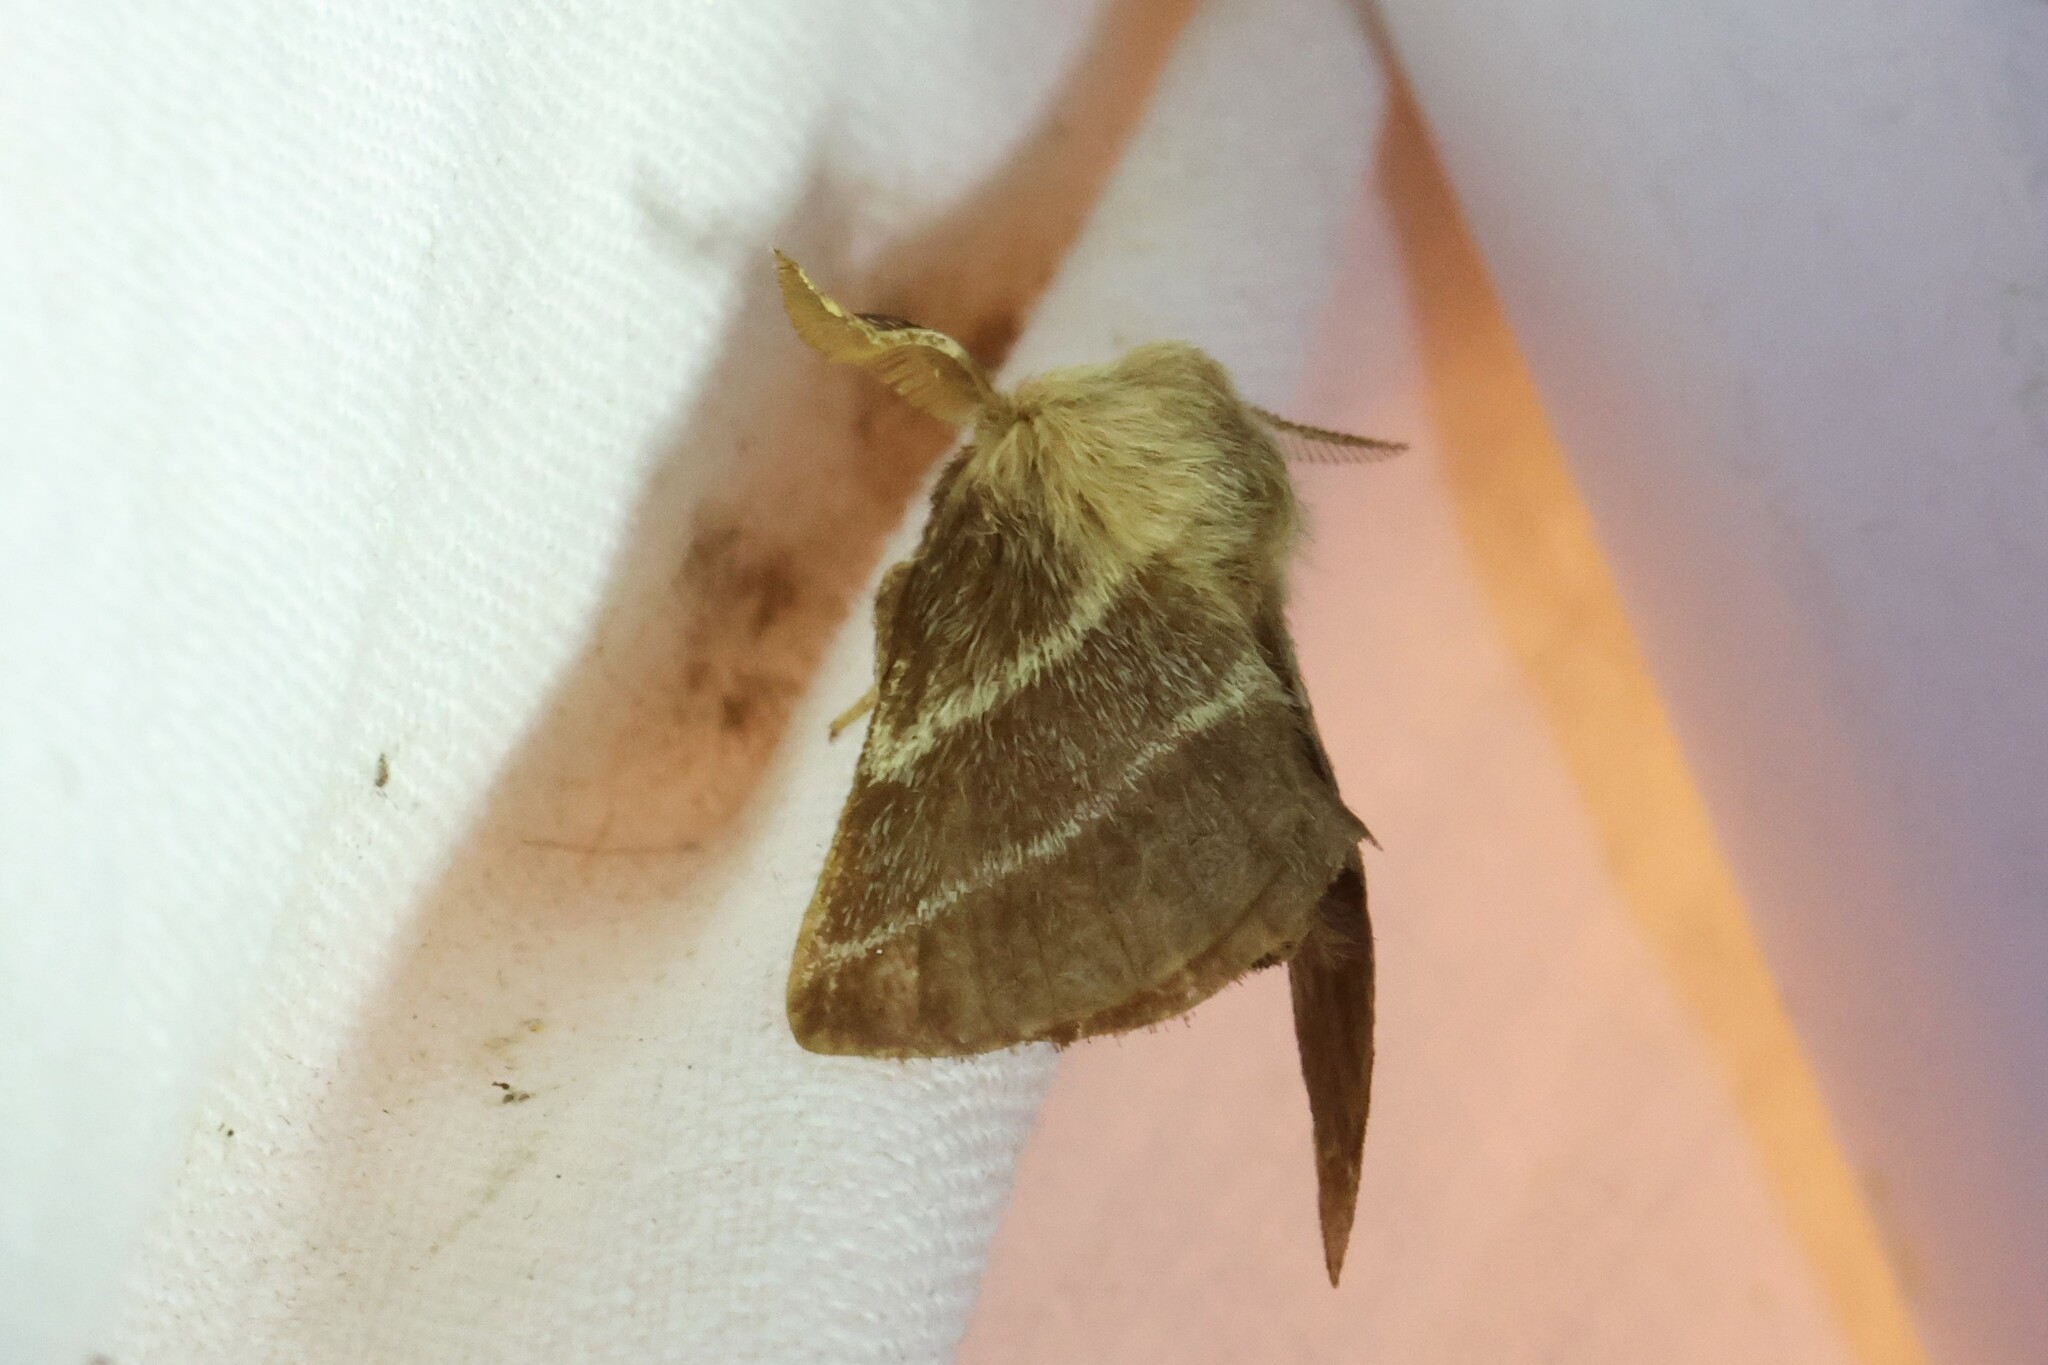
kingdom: Animalia
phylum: Arthropoda
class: Insecta
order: Lepidoptera
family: Lasiocampidae
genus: Malacosoma
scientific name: Malacosoma americana
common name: Eastern tent caterpillar moth
